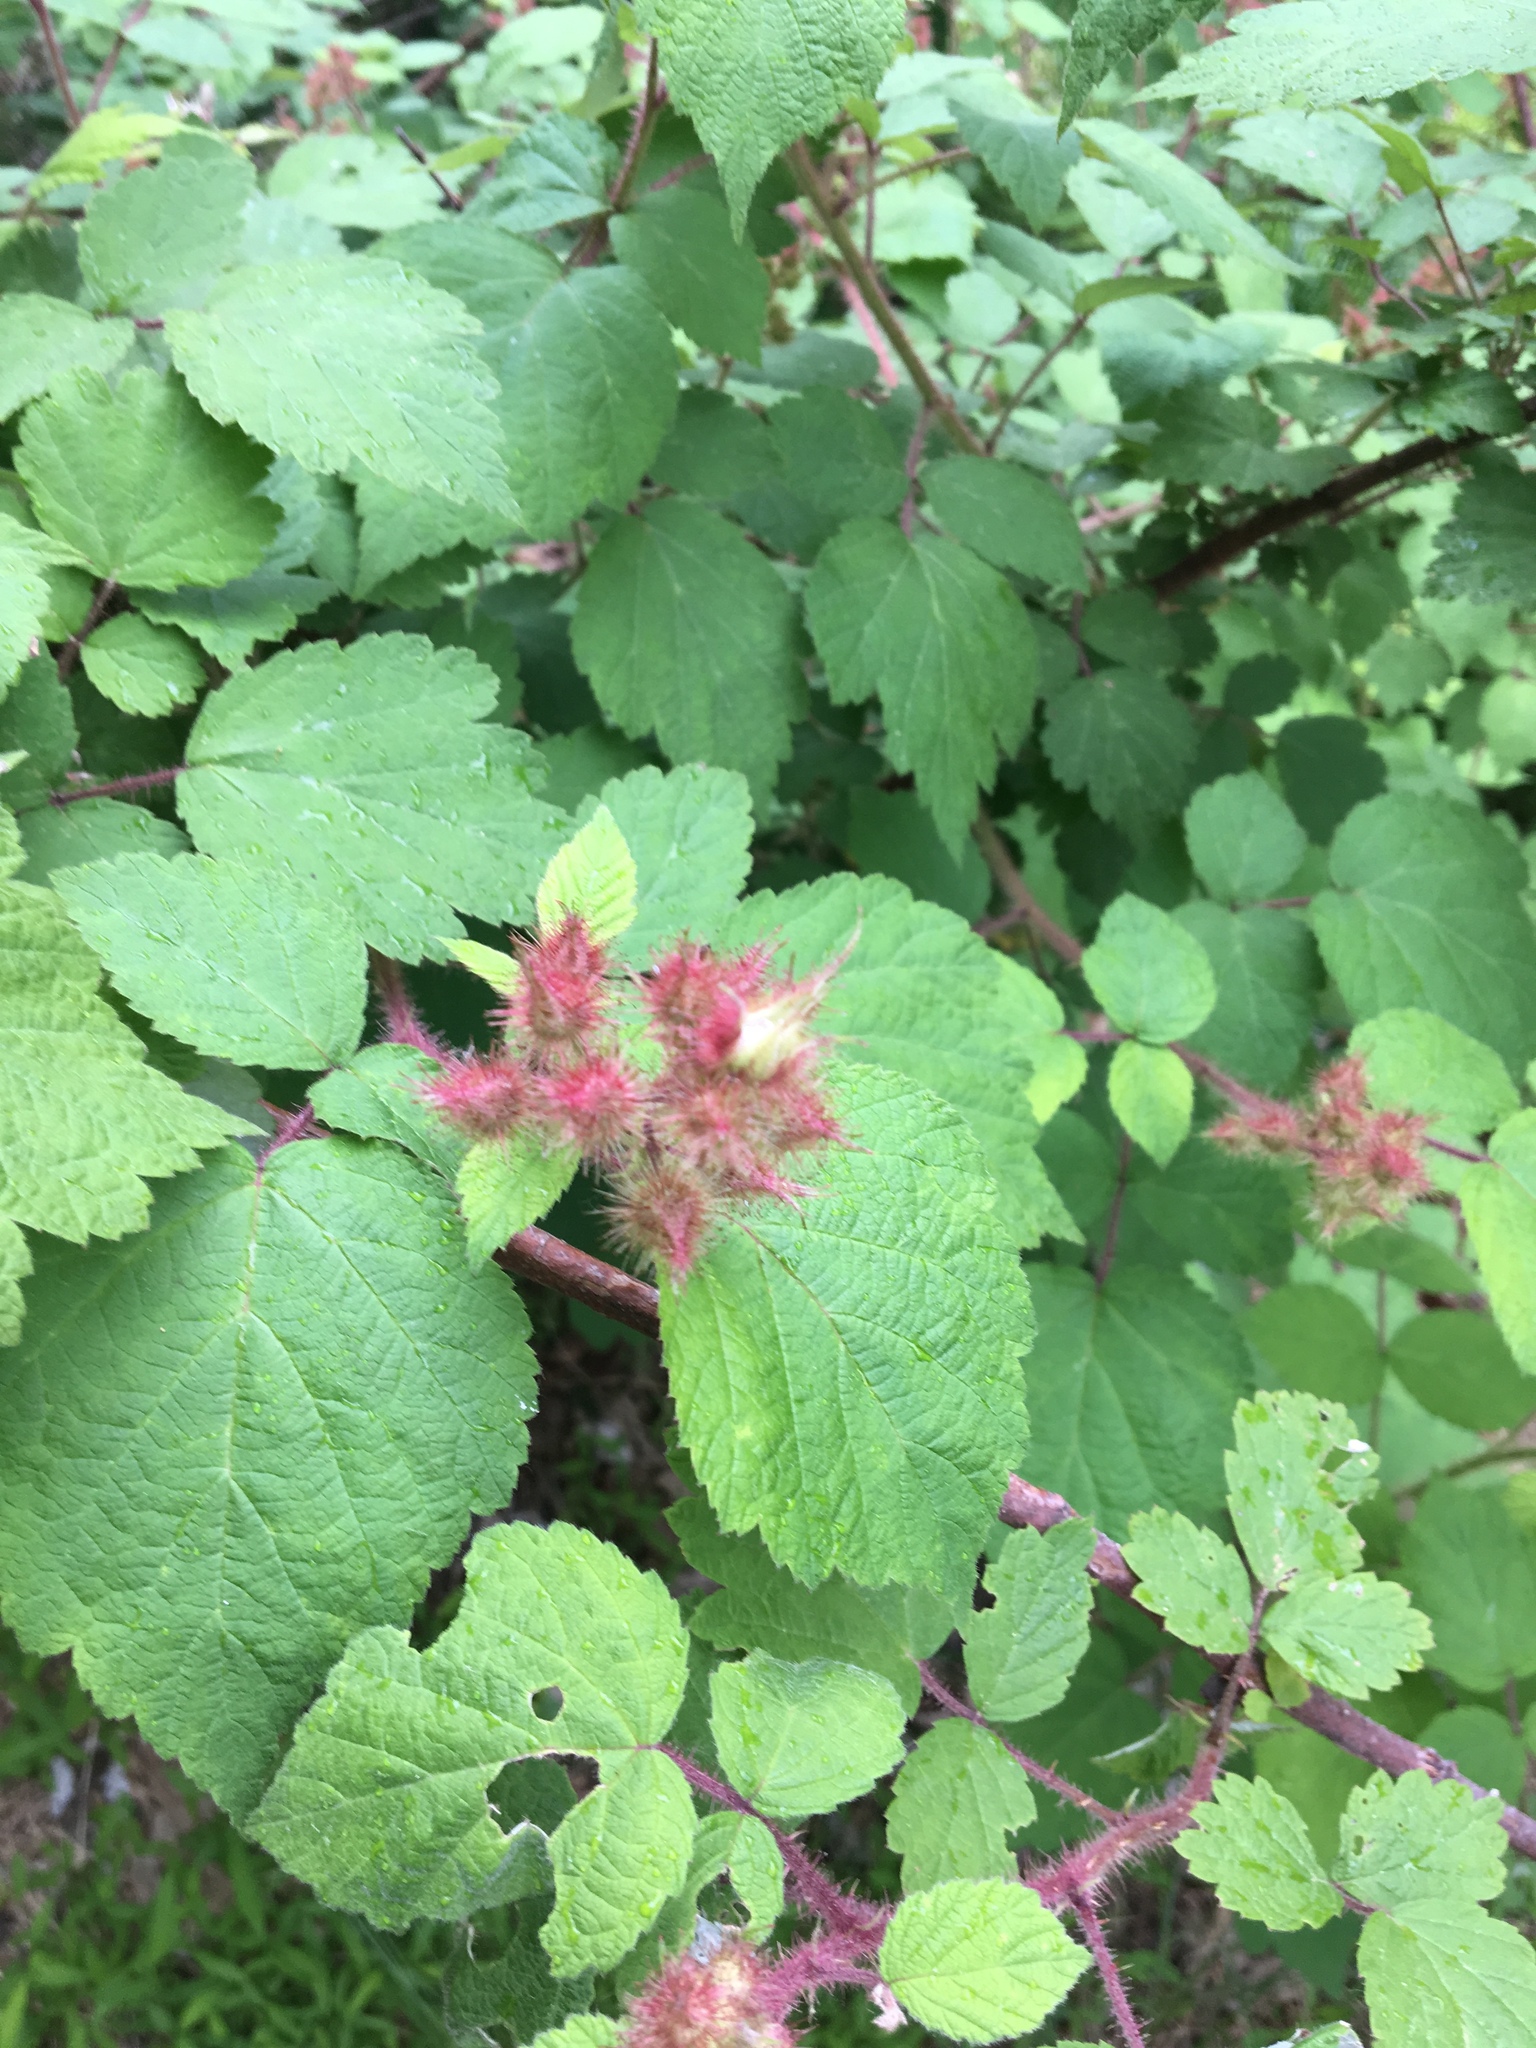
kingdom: Plantae
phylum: Tracheophyta
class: Magnoliopsida
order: Rosales
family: Rosaceae
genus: Rubus
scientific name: Rubus phoenicolasius
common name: Japanese wineberry
